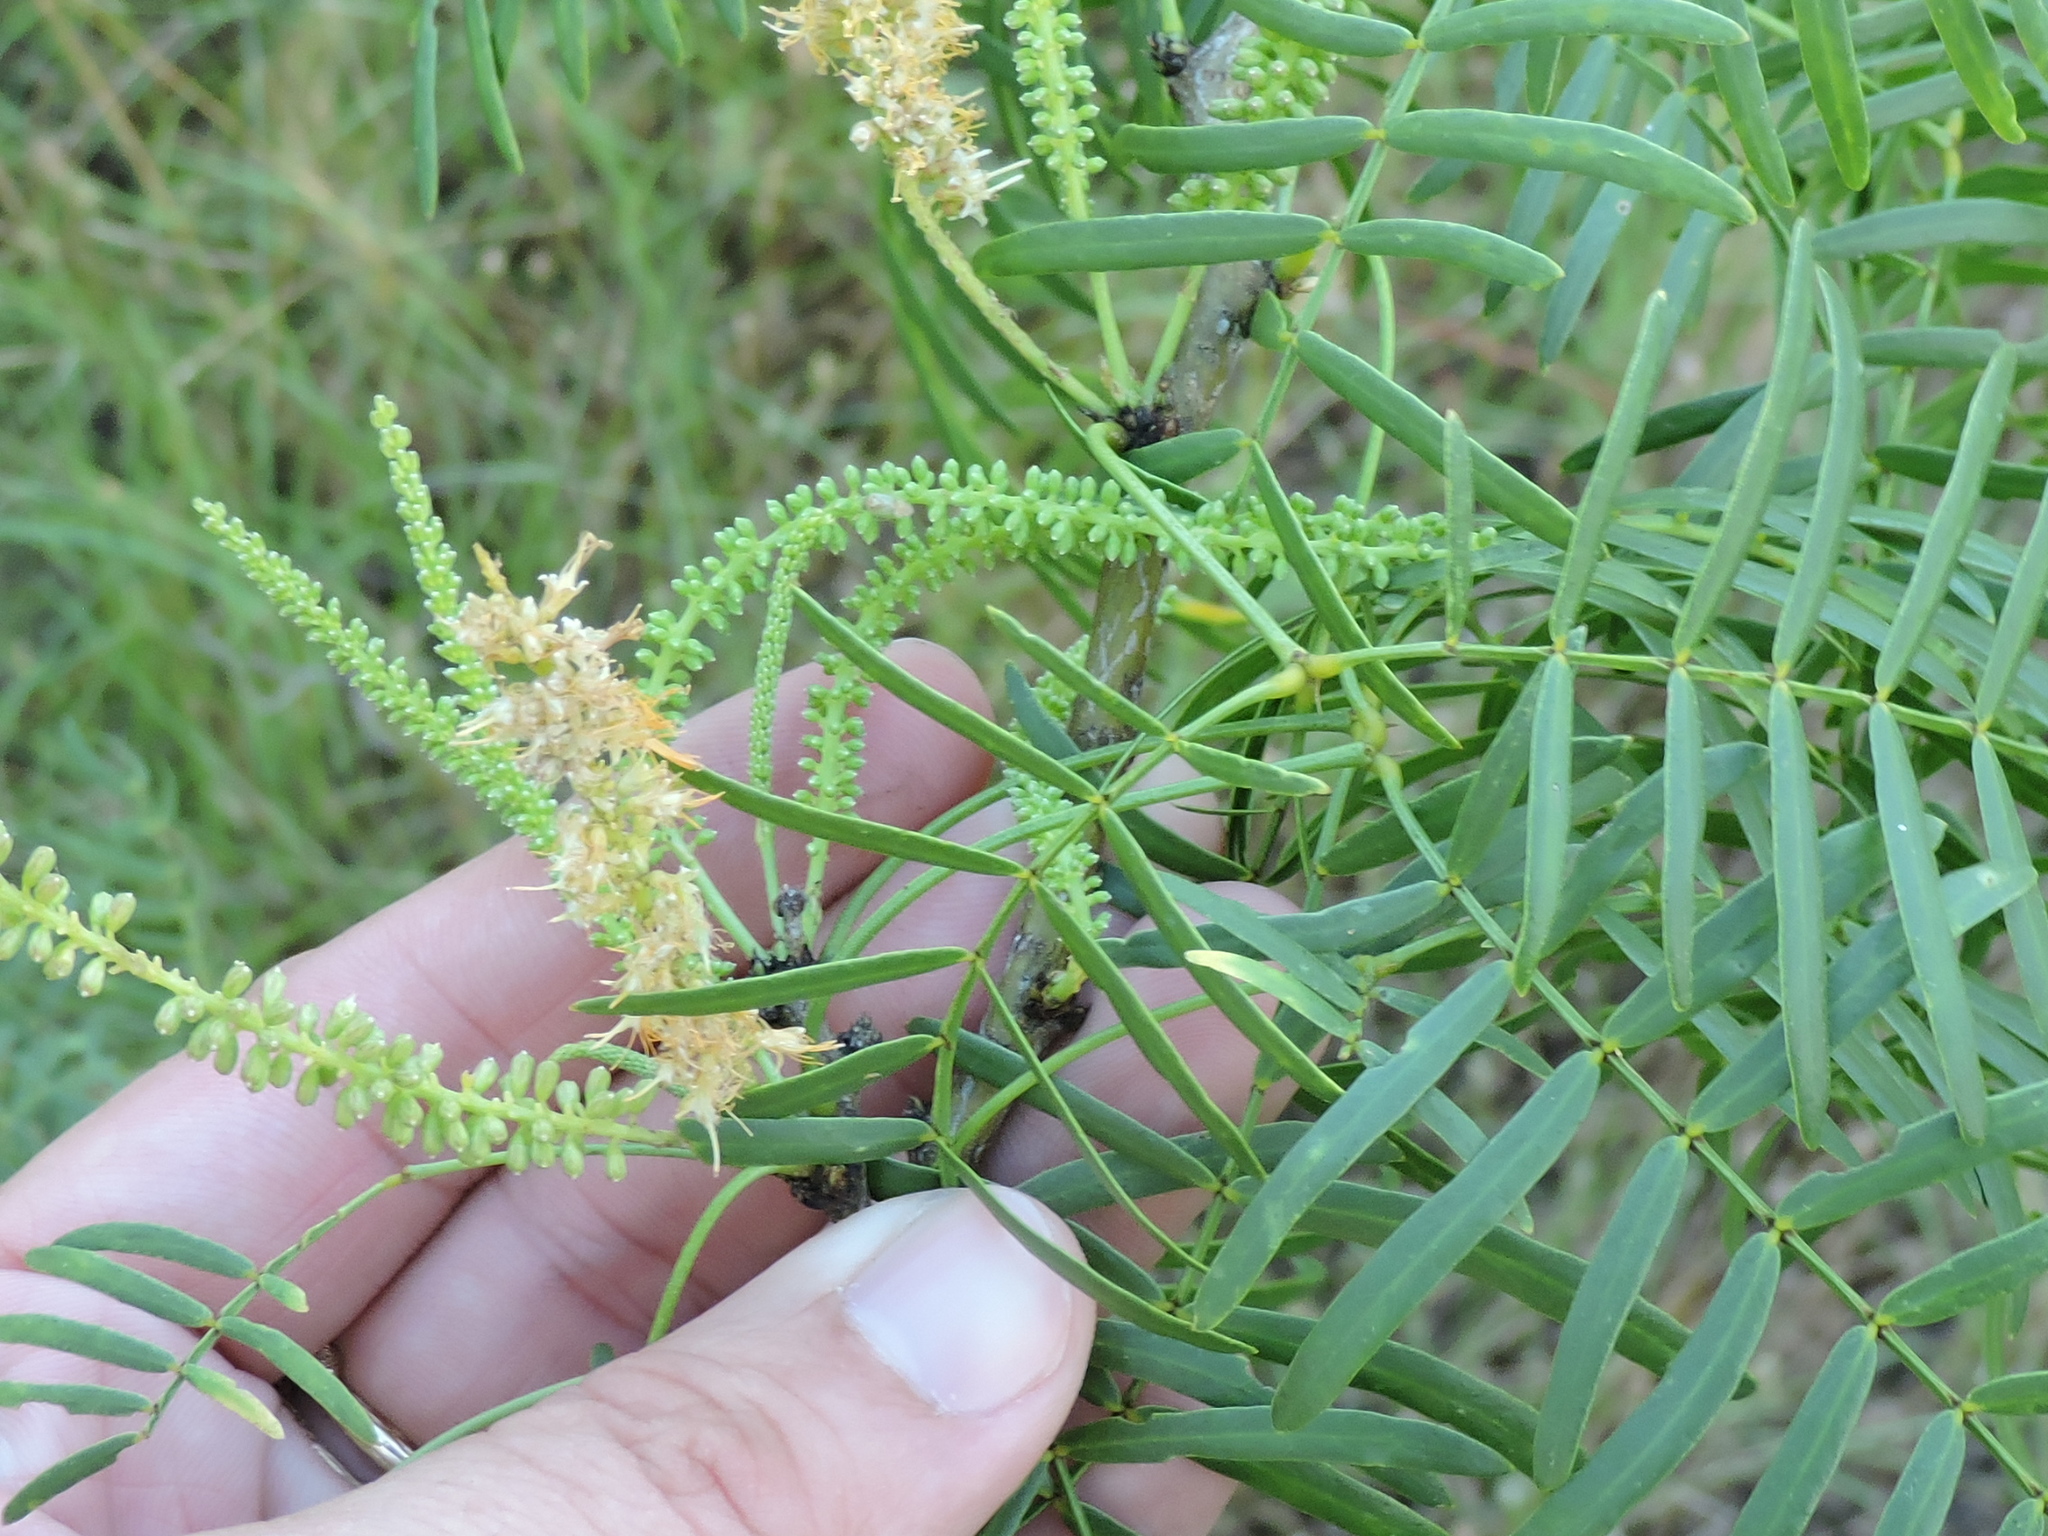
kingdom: Plantae
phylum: Tracheophyta
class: Magnoliopsida
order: Fabales
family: Fabaceae
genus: Prosopis
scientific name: Prosopis glandulosa
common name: Honey mesquite
